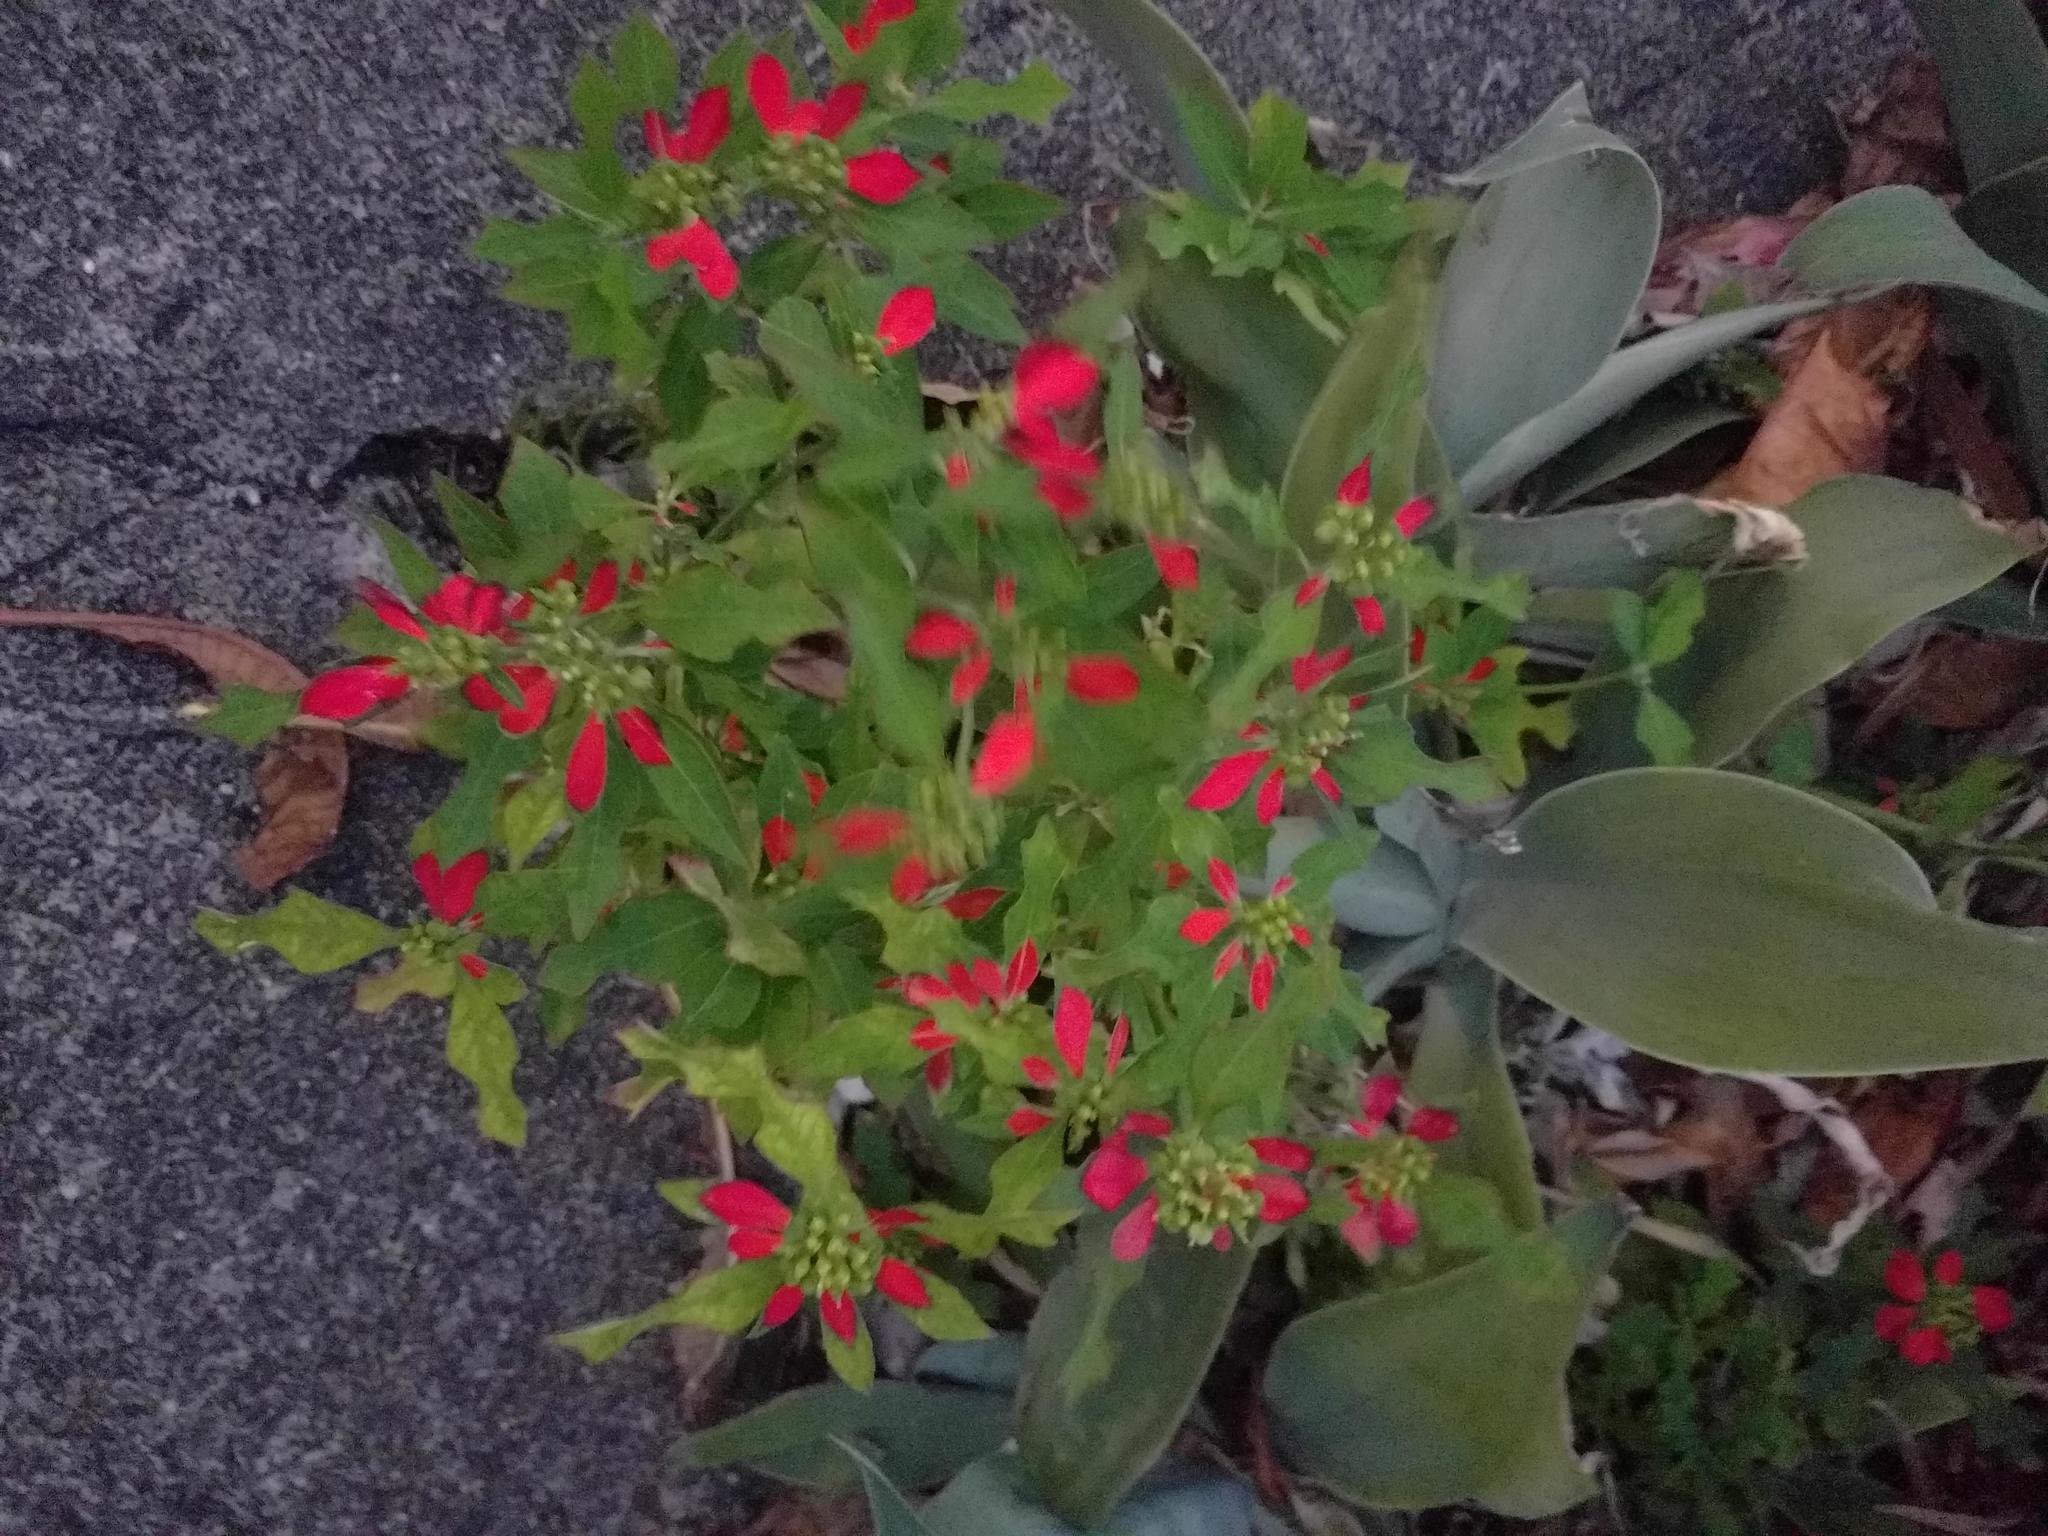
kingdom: Plantae
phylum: Tracheophyta
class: Magnoliopsida
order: Malpighiales
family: Euphorbiaceae
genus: Euphorbia
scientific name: Euphorbia heterophylla
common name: Mexican fireplant
